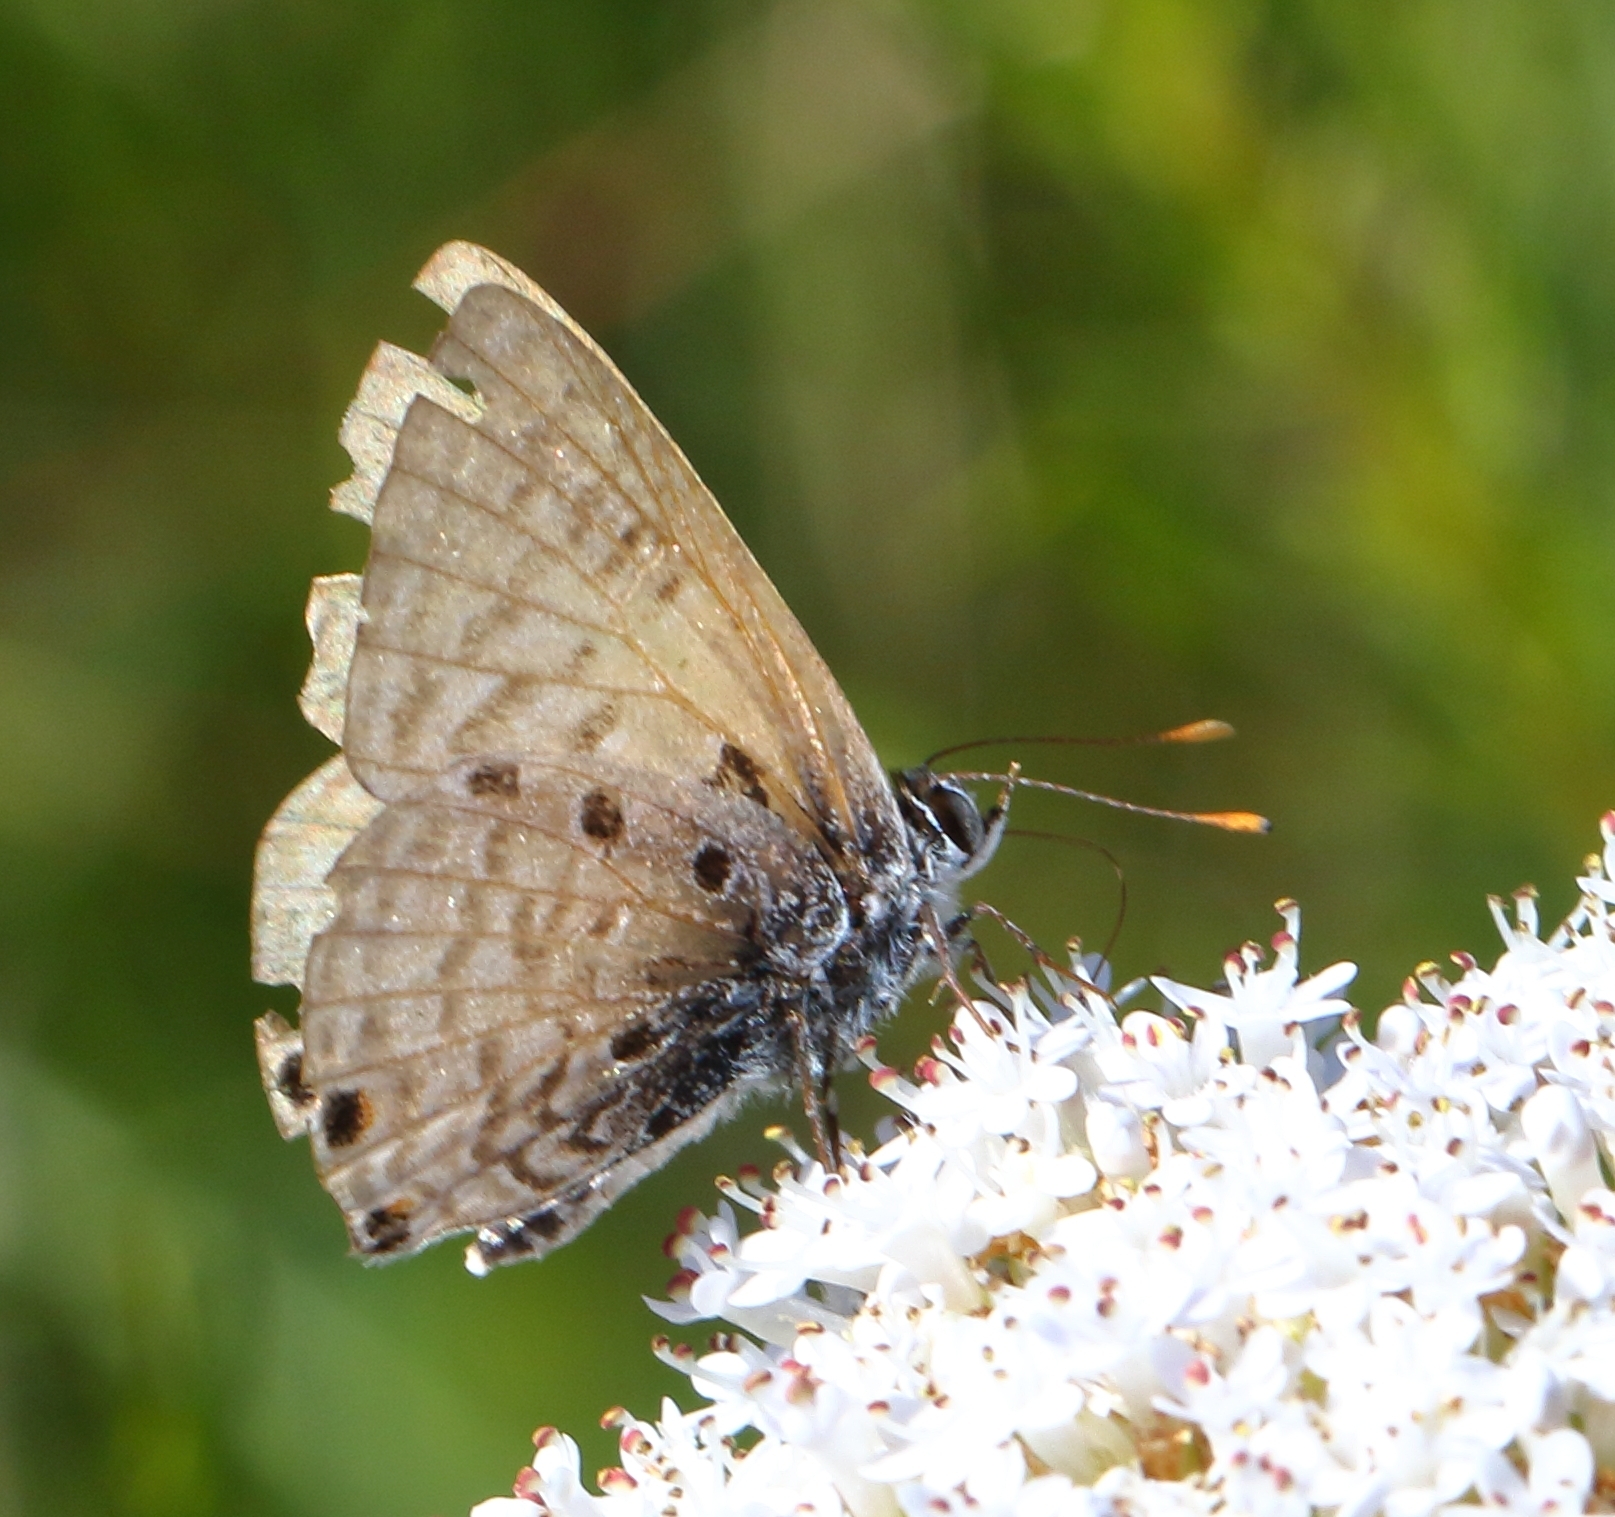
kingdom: Animalia
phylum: Arthropoda
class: Insecta
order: Lepidoptera
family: Lycaenidae
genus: Anthene
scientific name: Anthene amarah
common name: Black-striped hairtail
